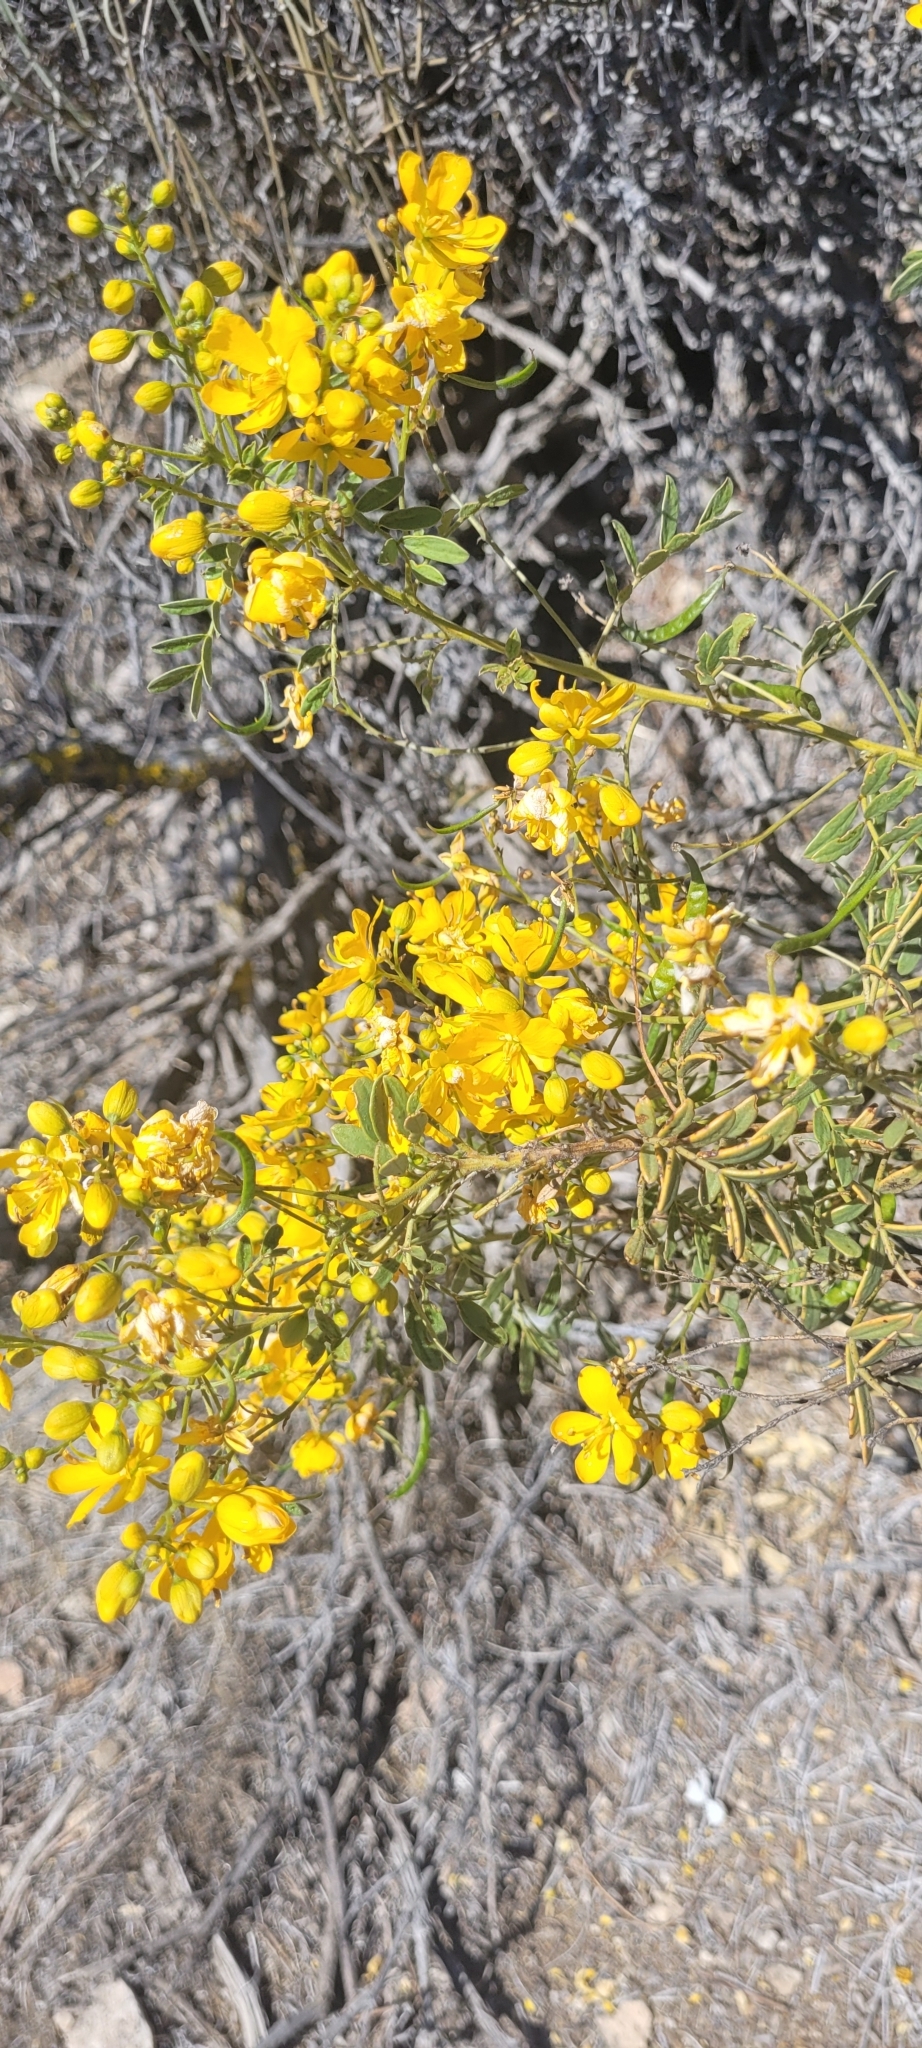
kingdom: Plantae
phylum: Tracheophyta
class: Magnoliopsida
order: Fabales
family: Fabaceae
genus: Senna
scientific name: Senna cumingii
